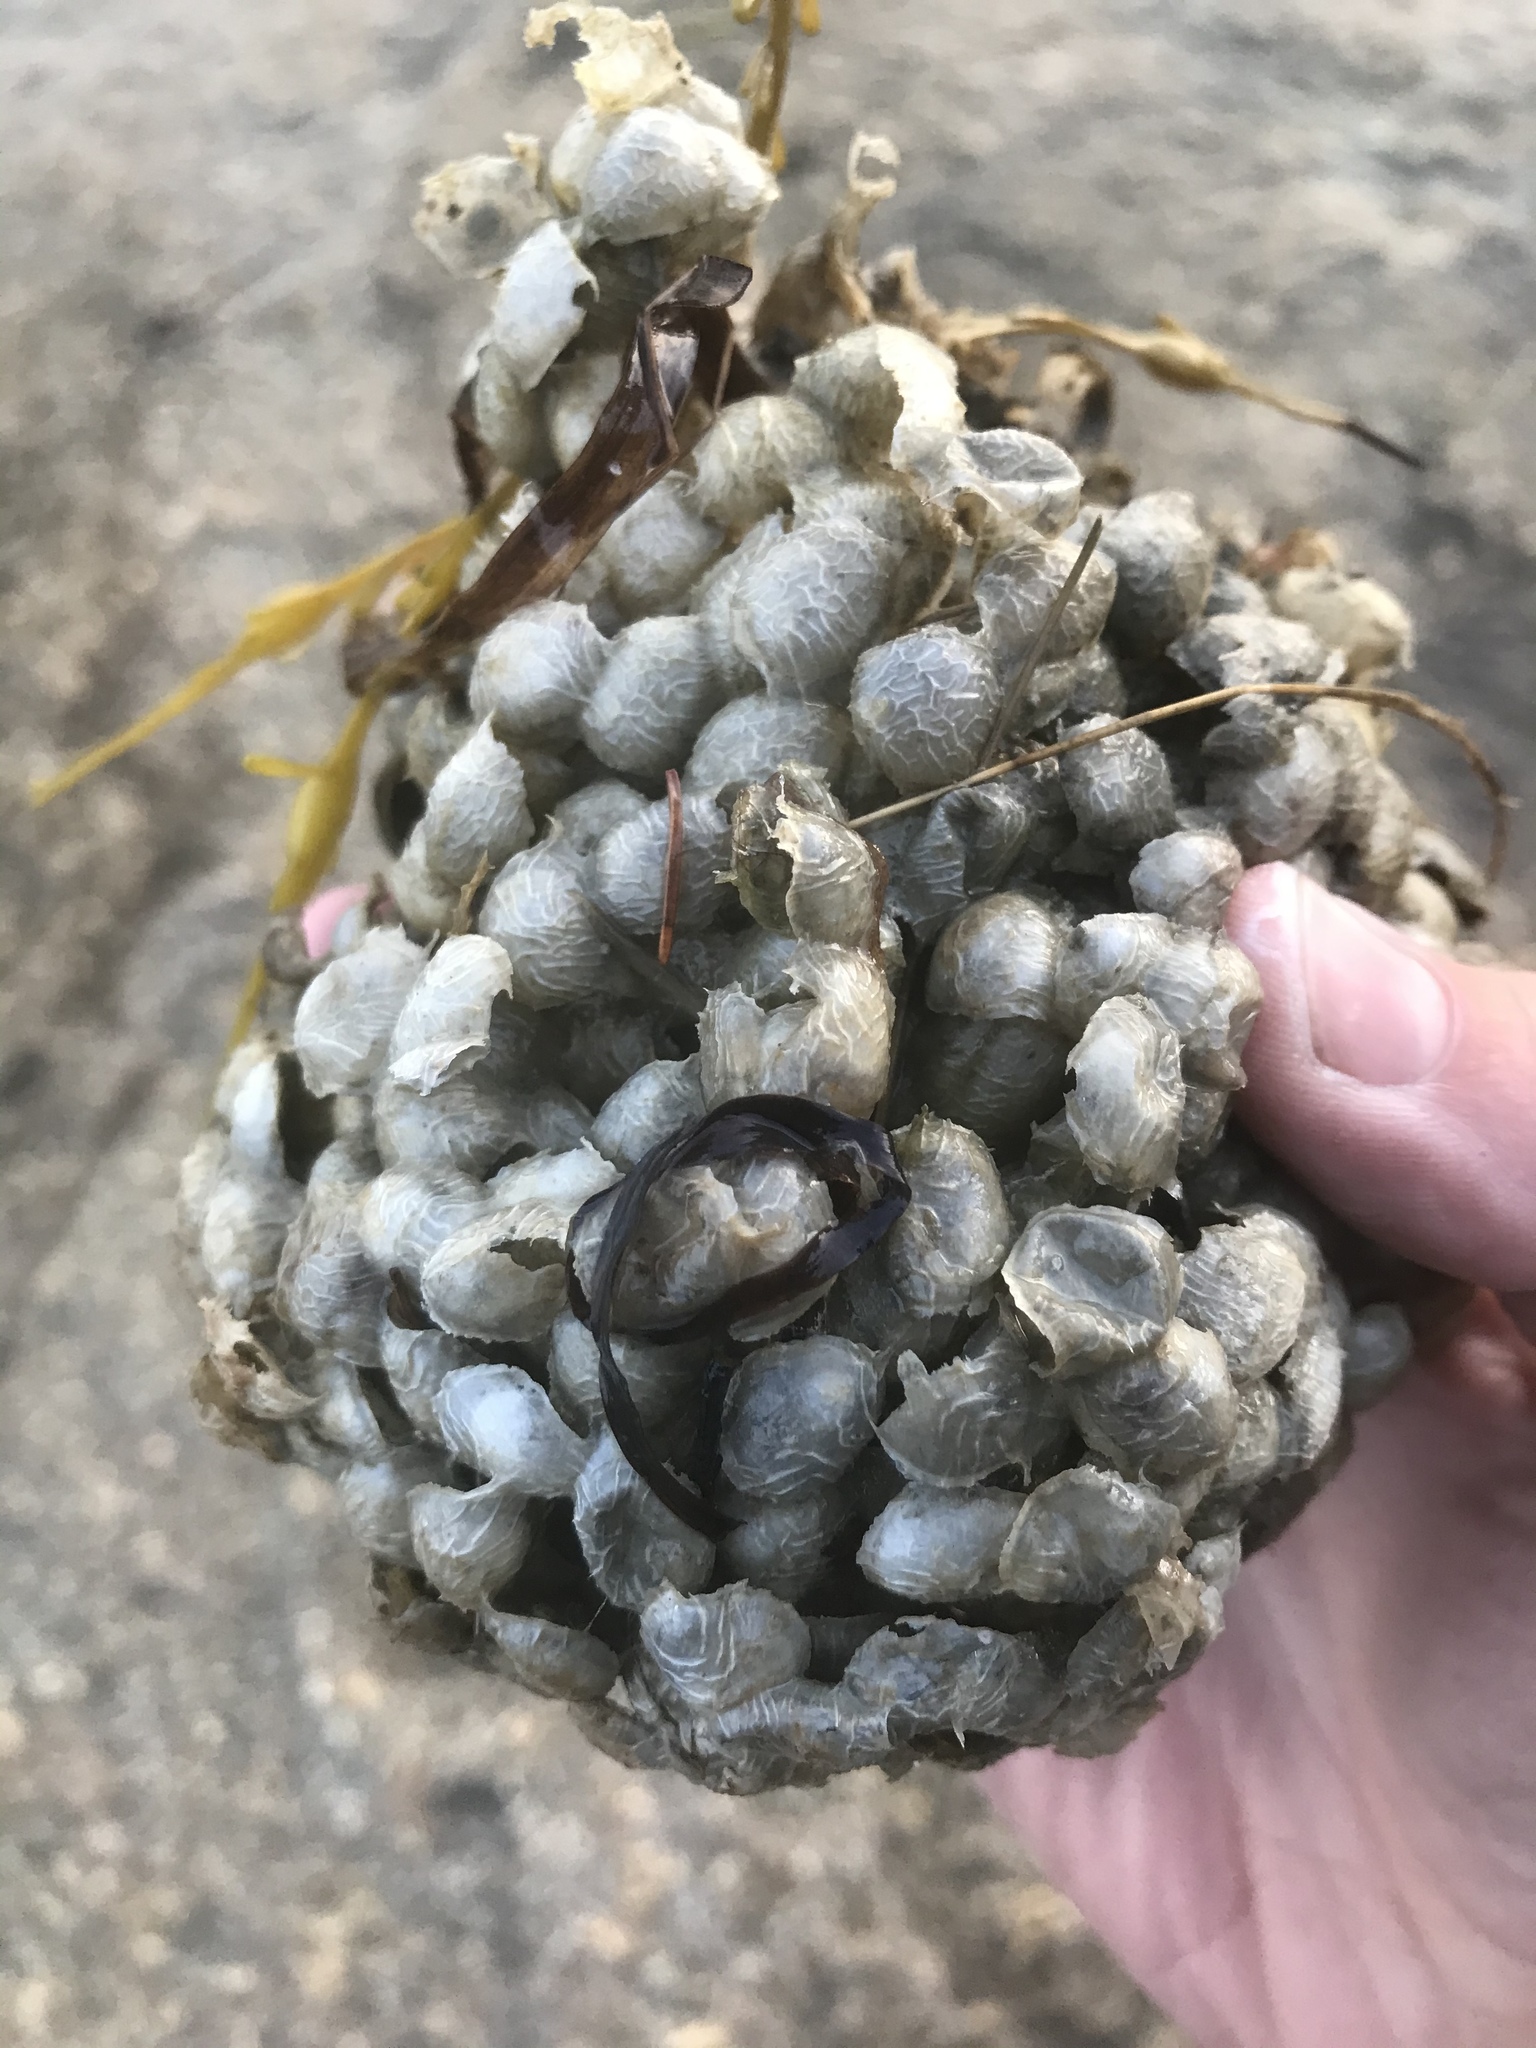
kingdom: Animalia
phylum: Mollusca
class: Gastropoda
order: Neogastropoda
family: Buccinidae
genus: Buccinum
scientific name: Buccinum undatum
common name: Common whelk
